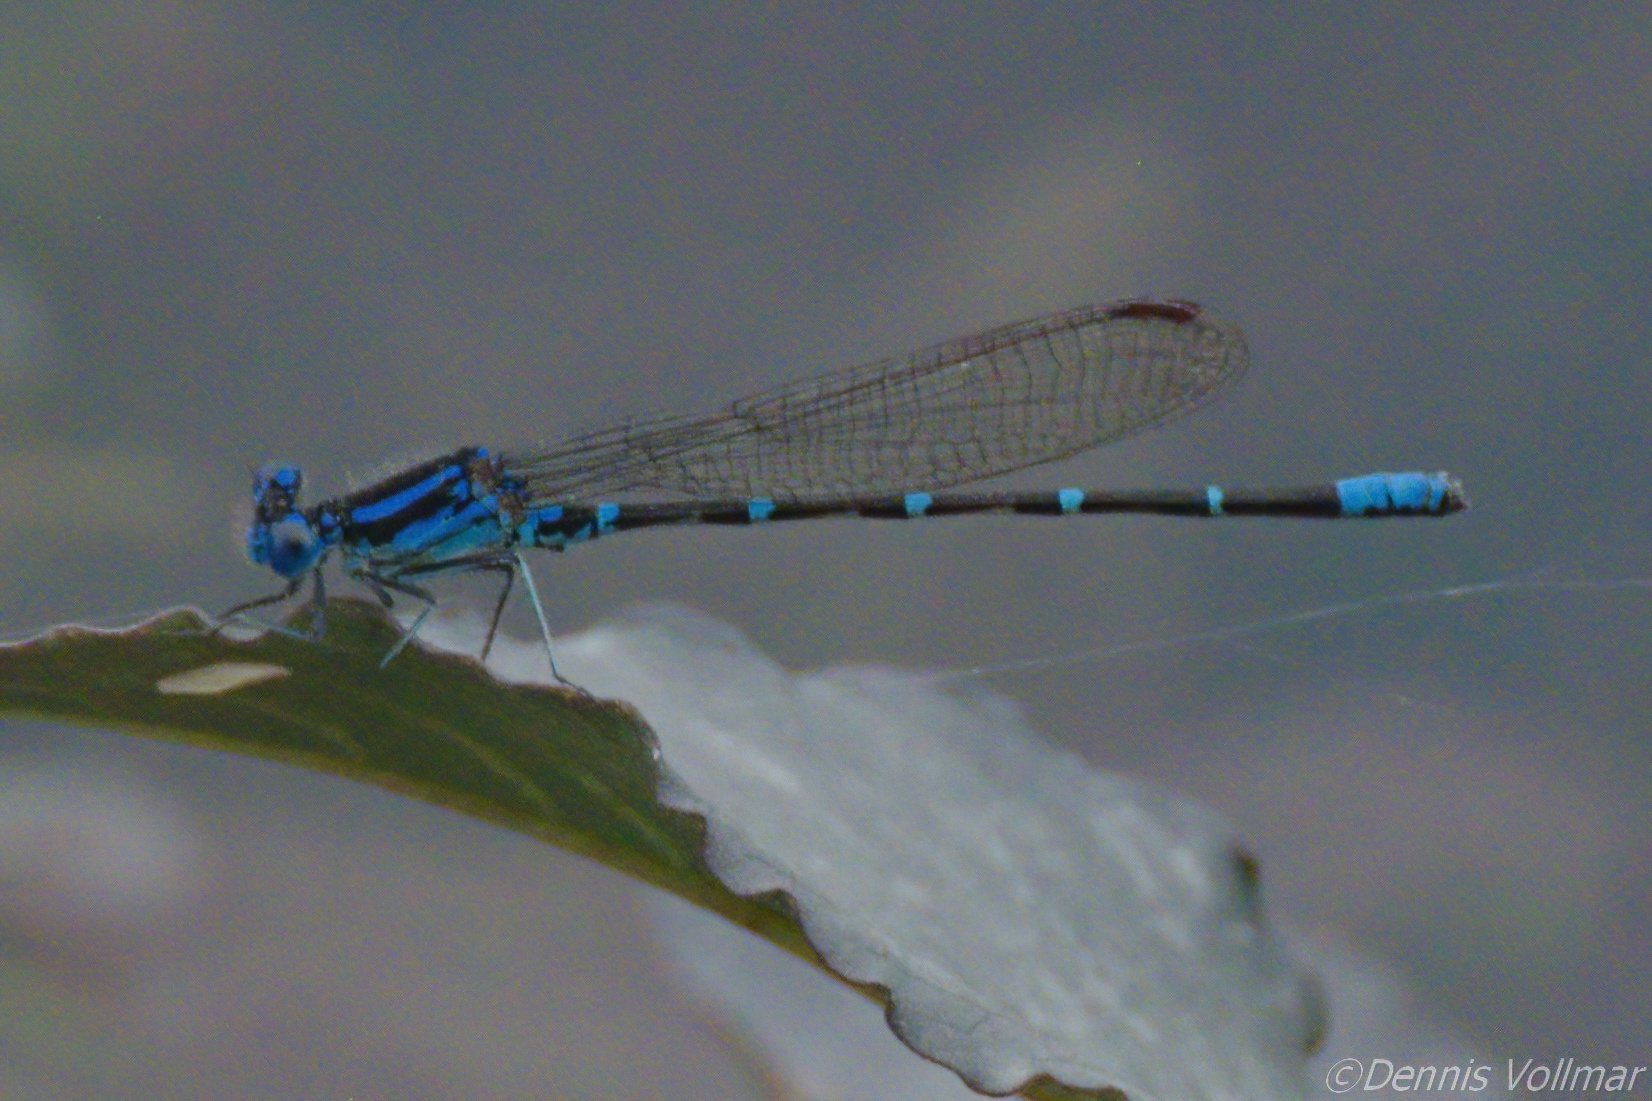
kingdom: Animalia
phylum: Arthropoda
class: Insecta
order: Odonata
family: Coenagrionidae
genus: Argia
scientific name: Argia sedula
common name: Blue-ringed dancer
